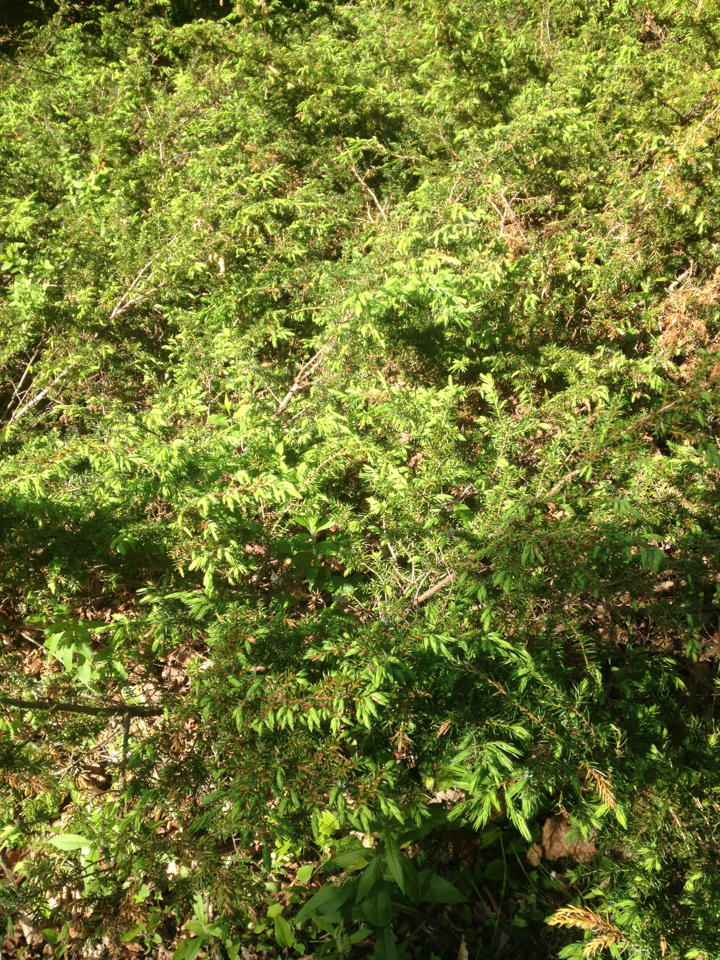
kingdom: Plantae
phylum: Tracheophyta
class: Pinopsida
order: Pinales
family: Cupressaceae
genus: Juniperus
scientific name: Juniperus communis
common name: Common juniper
